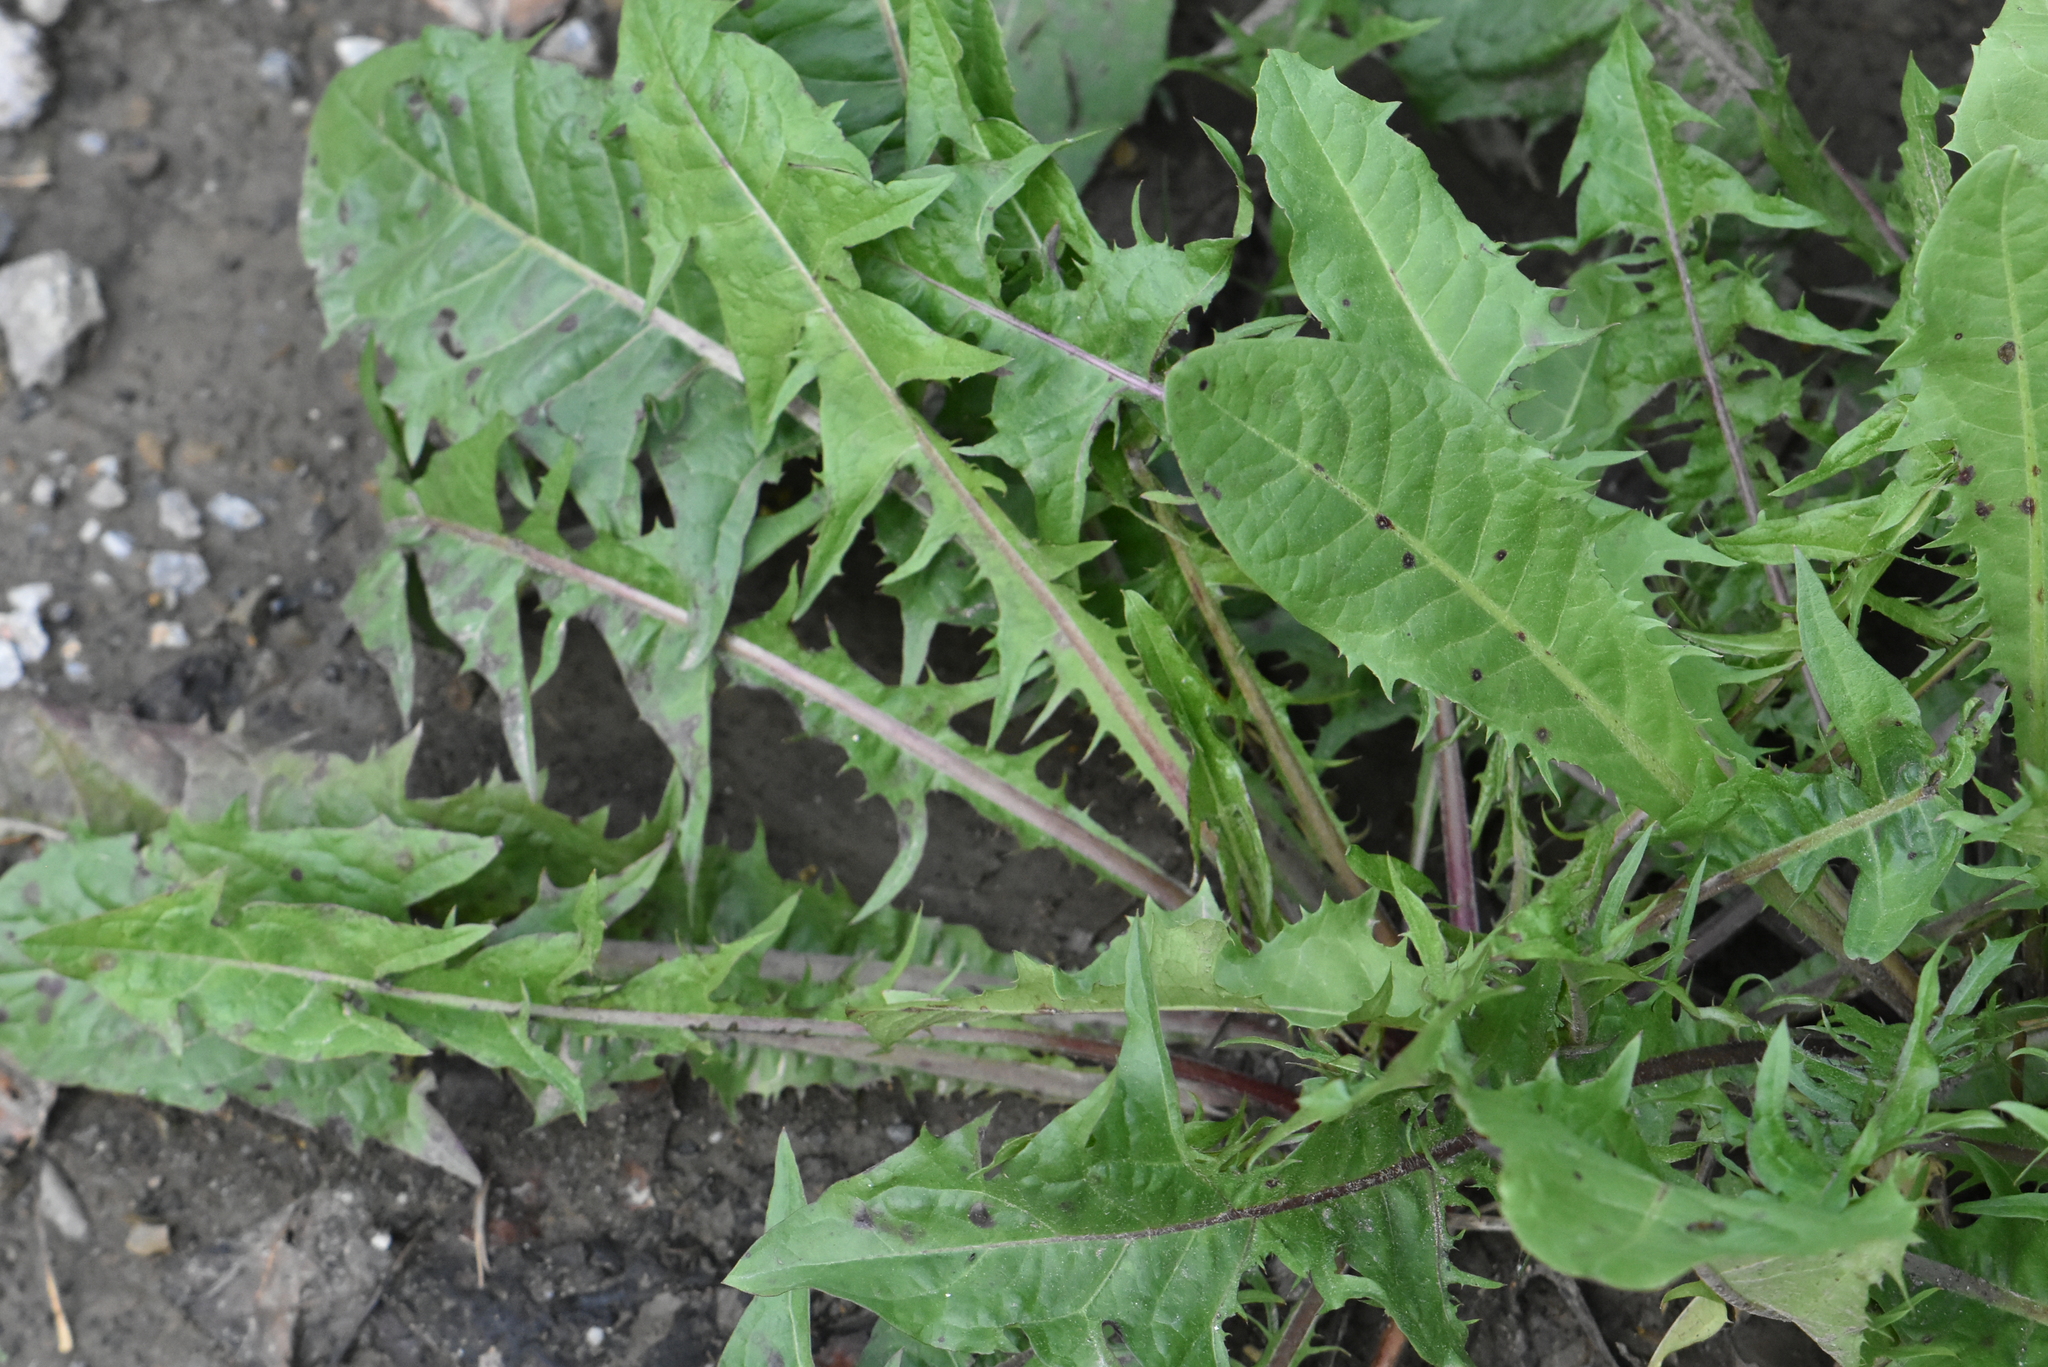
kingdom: Plantae
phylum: Tracheophyta
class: Magnoliopsida
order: Asterales
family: Asteraceae
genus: Taraxacum
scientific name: Taraxacum officinale
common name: Common dandelion
